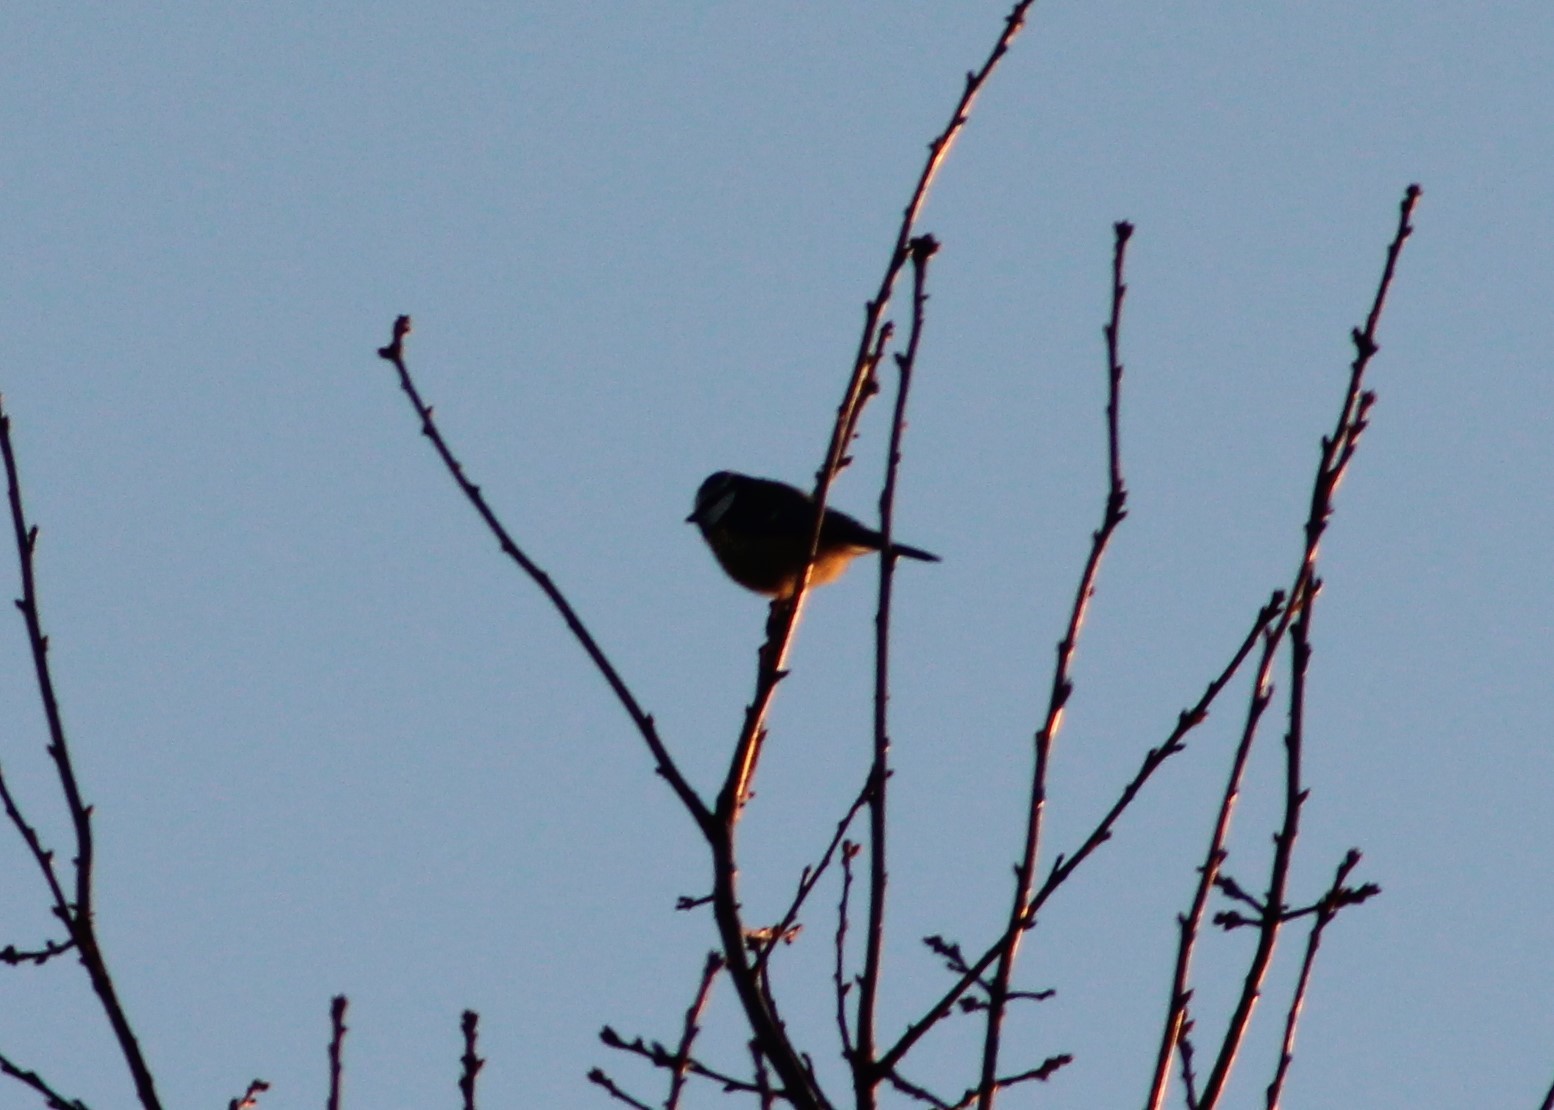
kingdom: Animalia
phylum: Chordata
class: Aves
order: Passeriformes
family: Paridae
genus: Cyanistes
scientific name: Cyanistes caeruleus
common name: Eurasian blue tit
